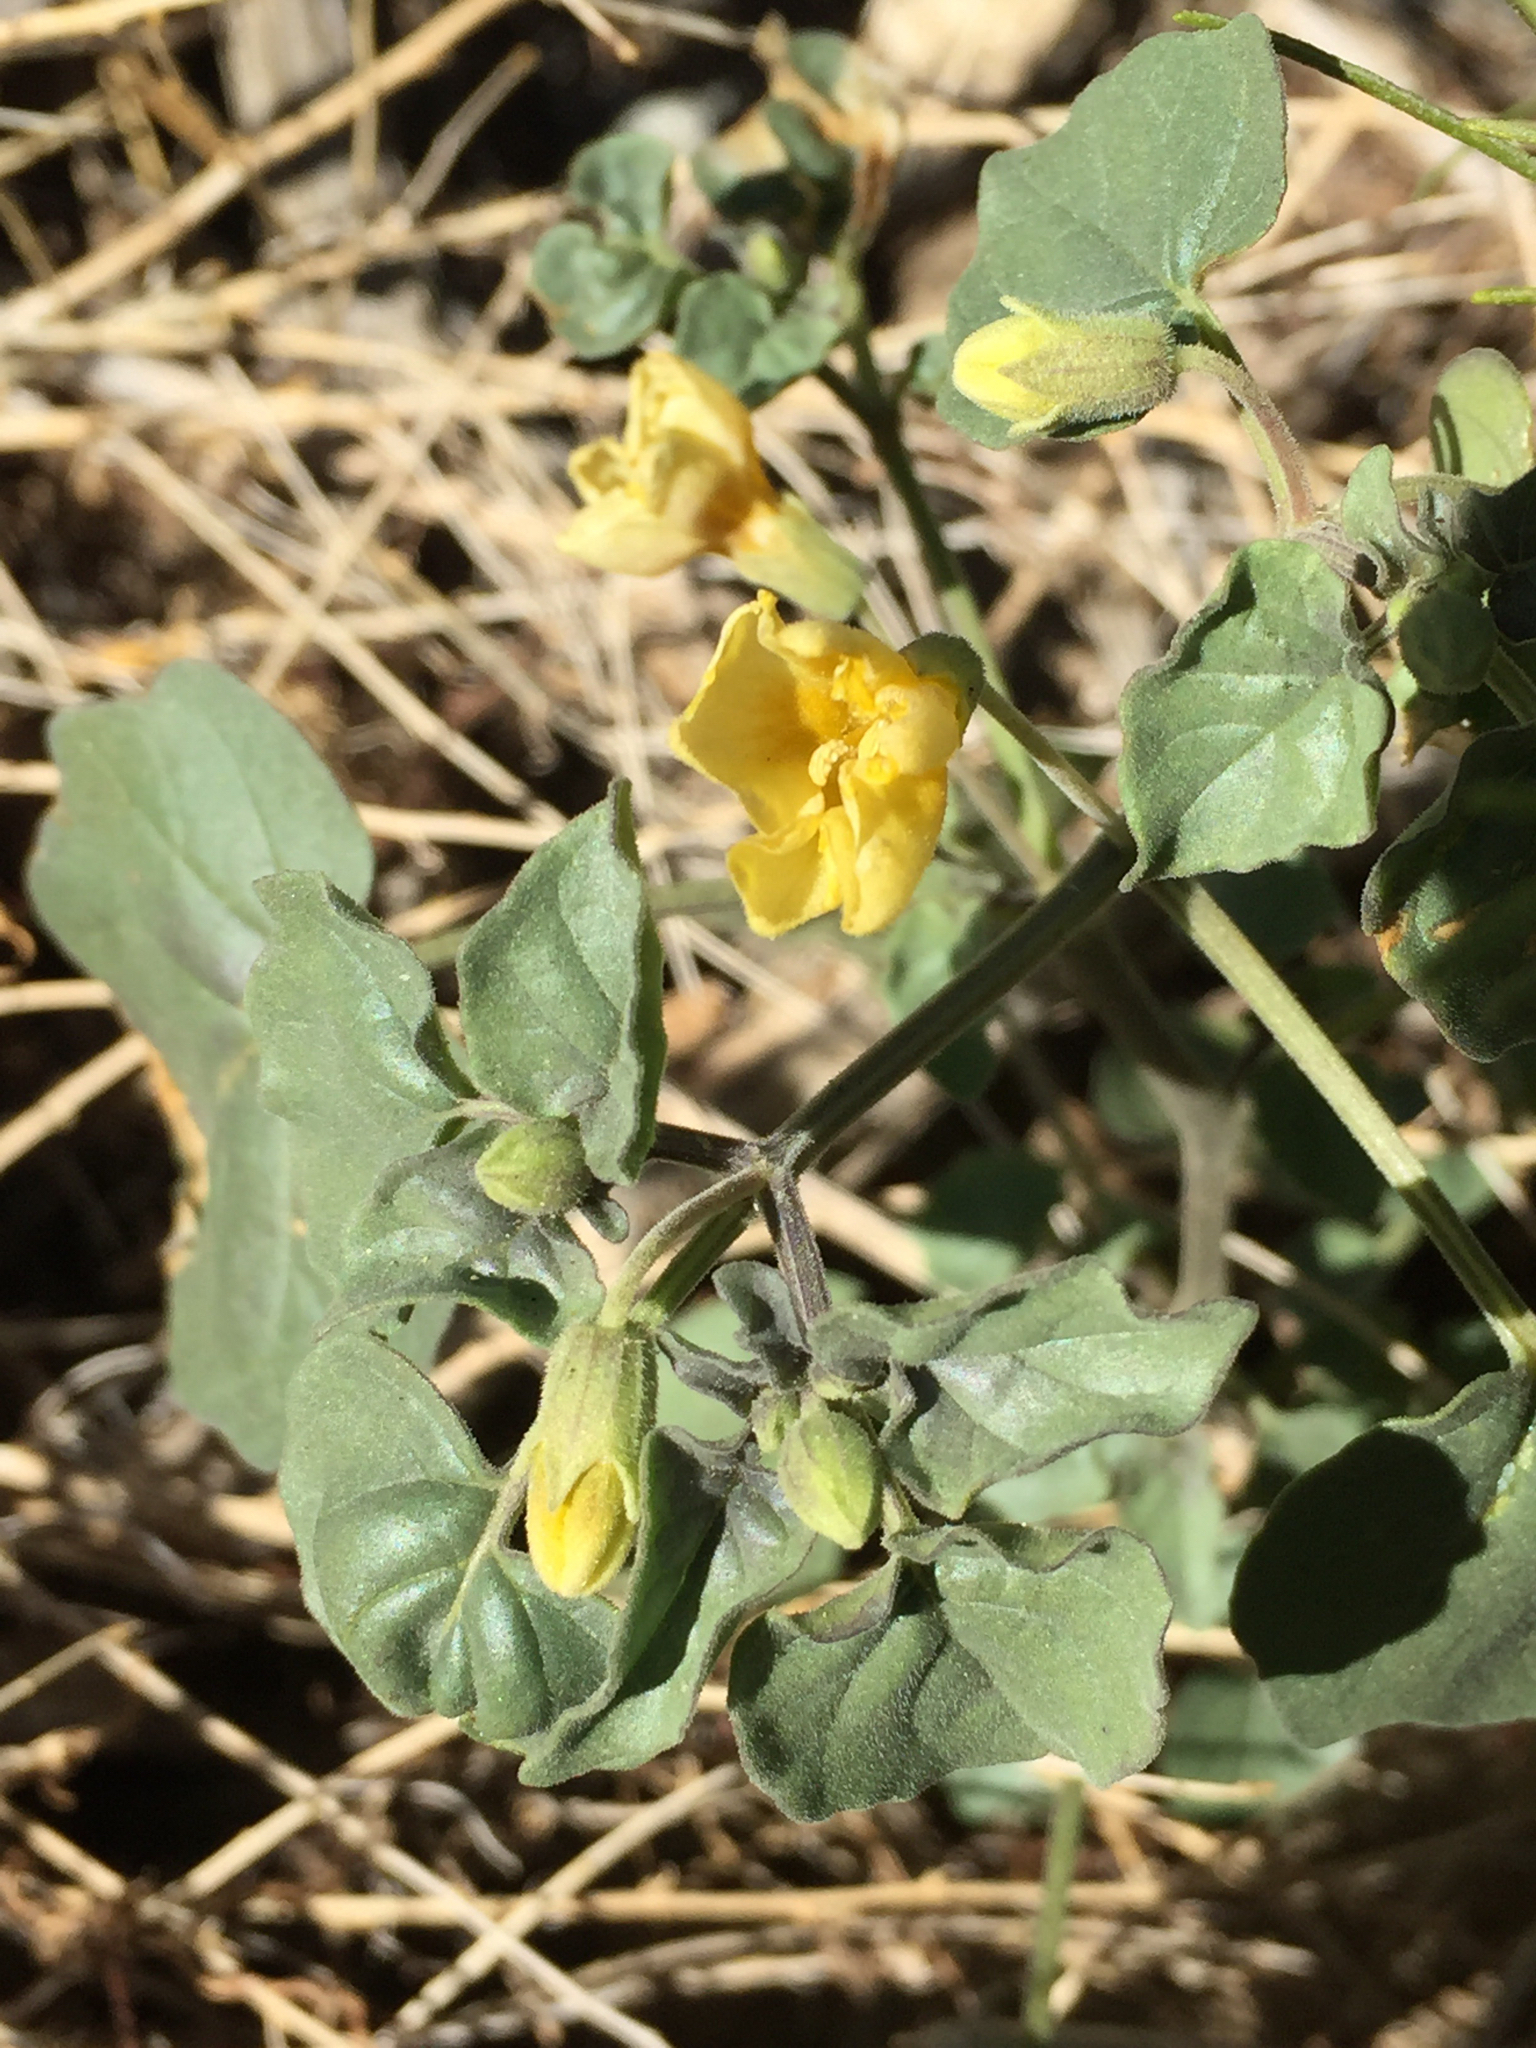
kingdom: Plantae
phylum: Tracheophyta
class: Magnoliopsida
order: Solanales
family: Solanaceae
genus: Physalis
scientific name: Physalis crassifolia
